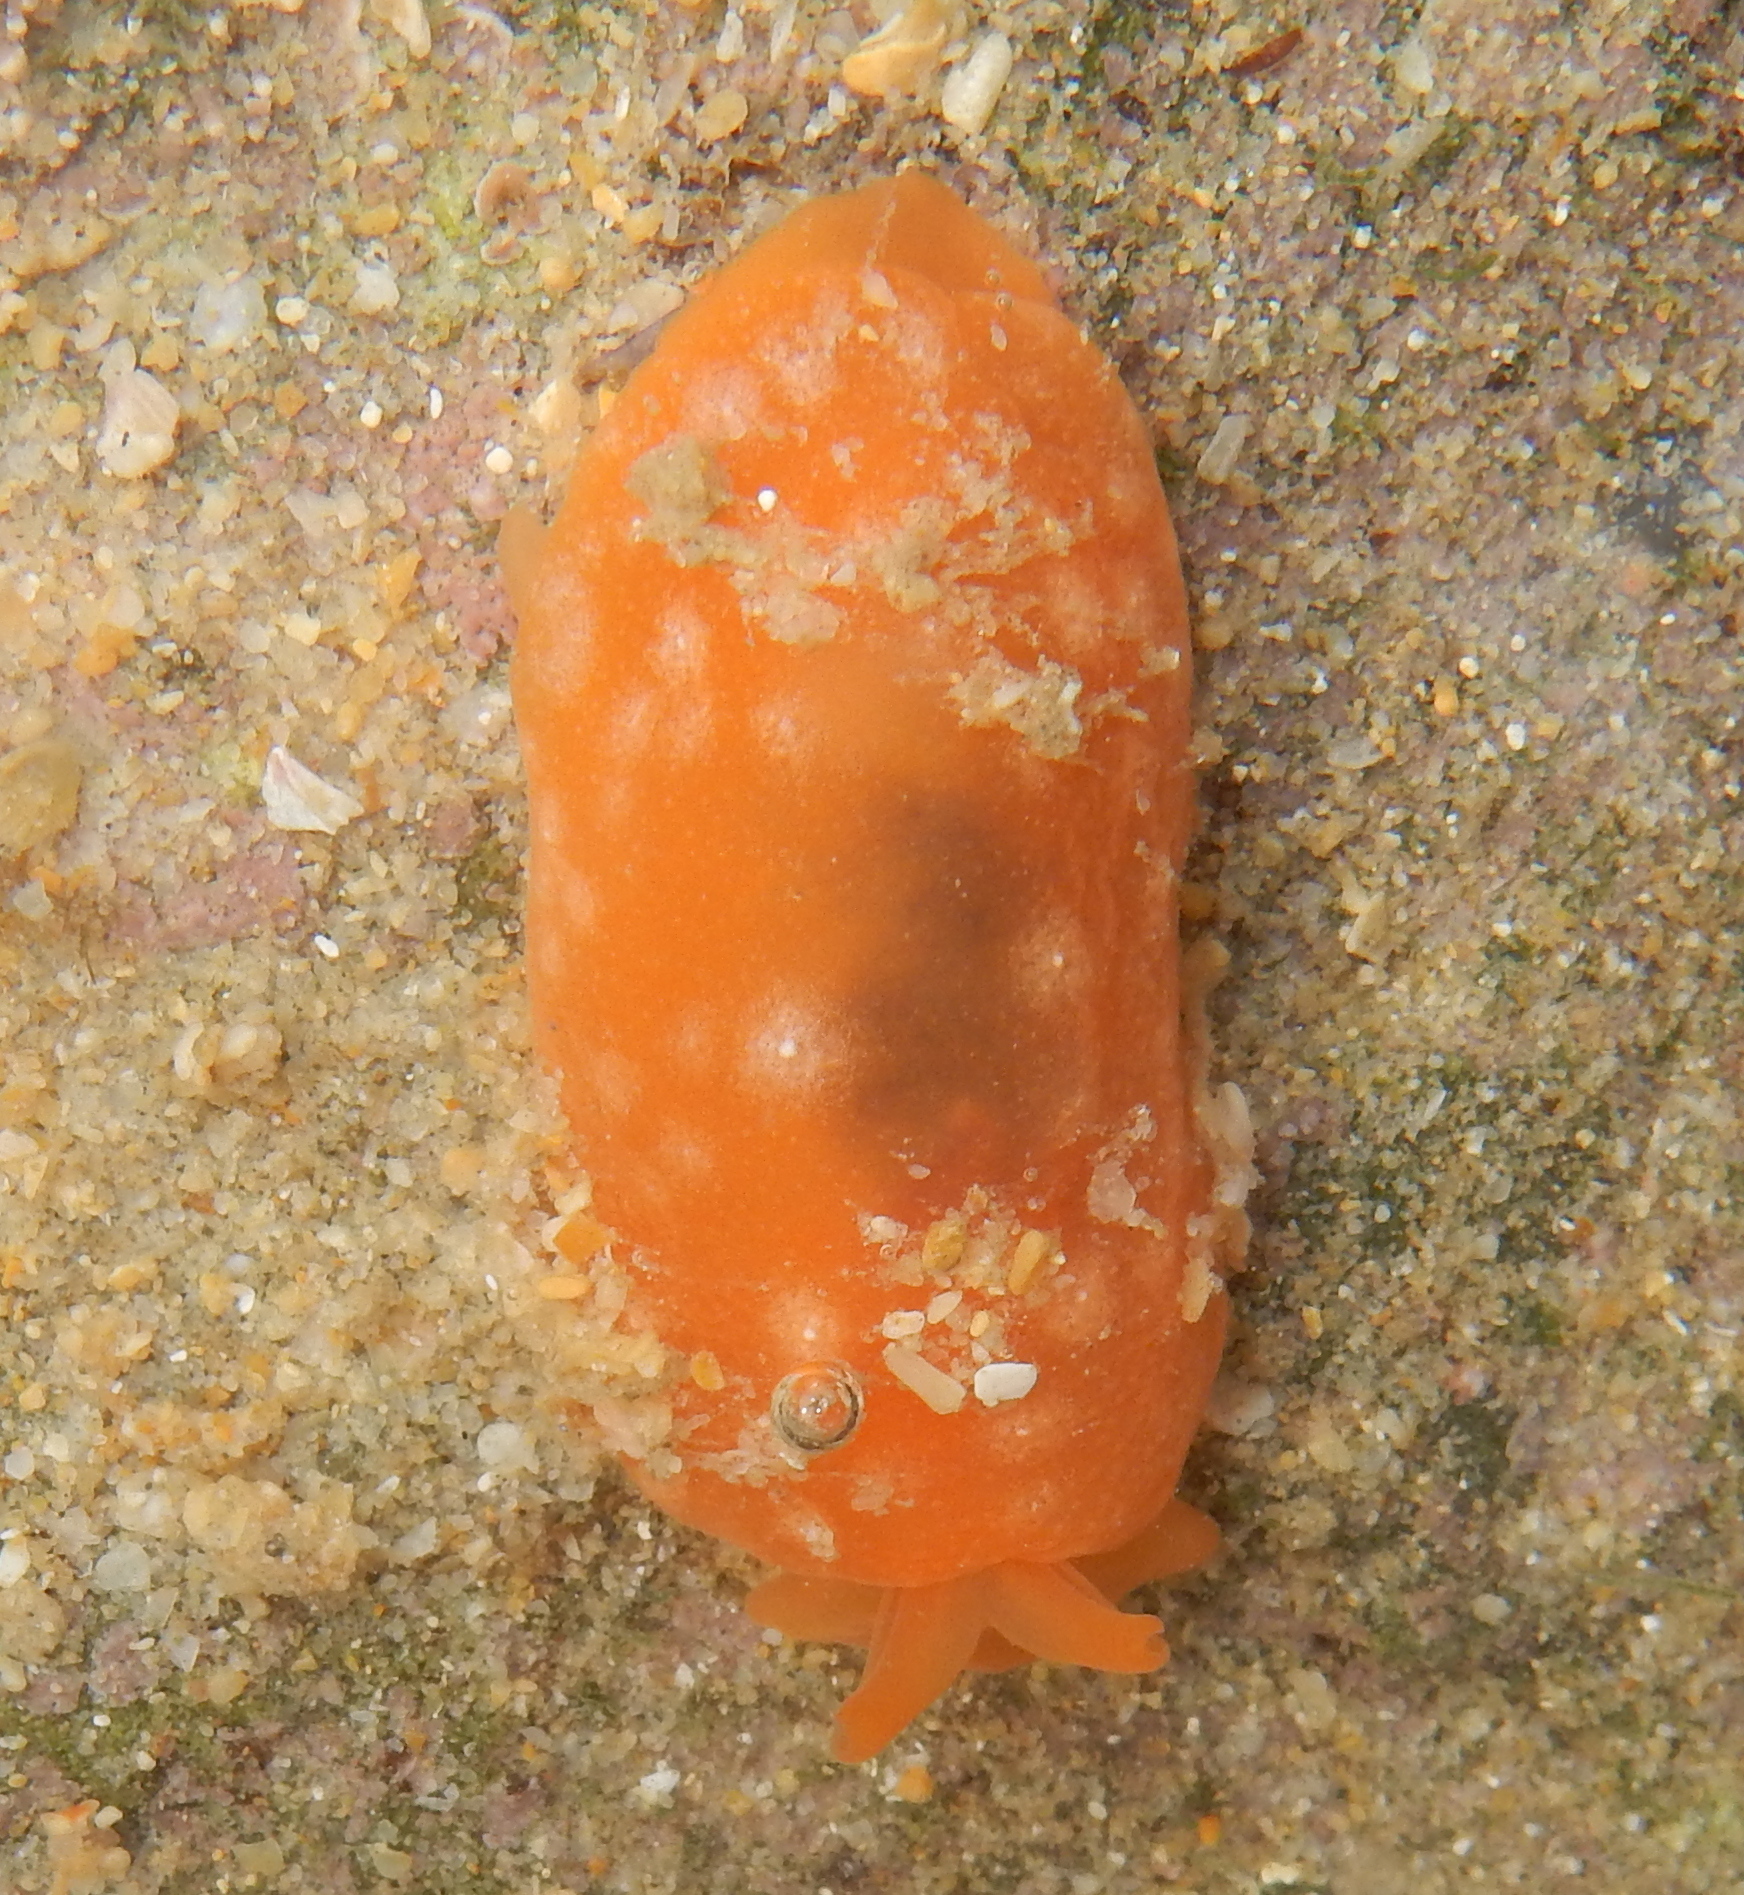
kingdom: Animalia
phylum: Mollusca
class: Gastropoda
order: Pleurobranchida
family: Pleurobranchidae
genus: Berthellina
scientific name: Berthellina granulata
